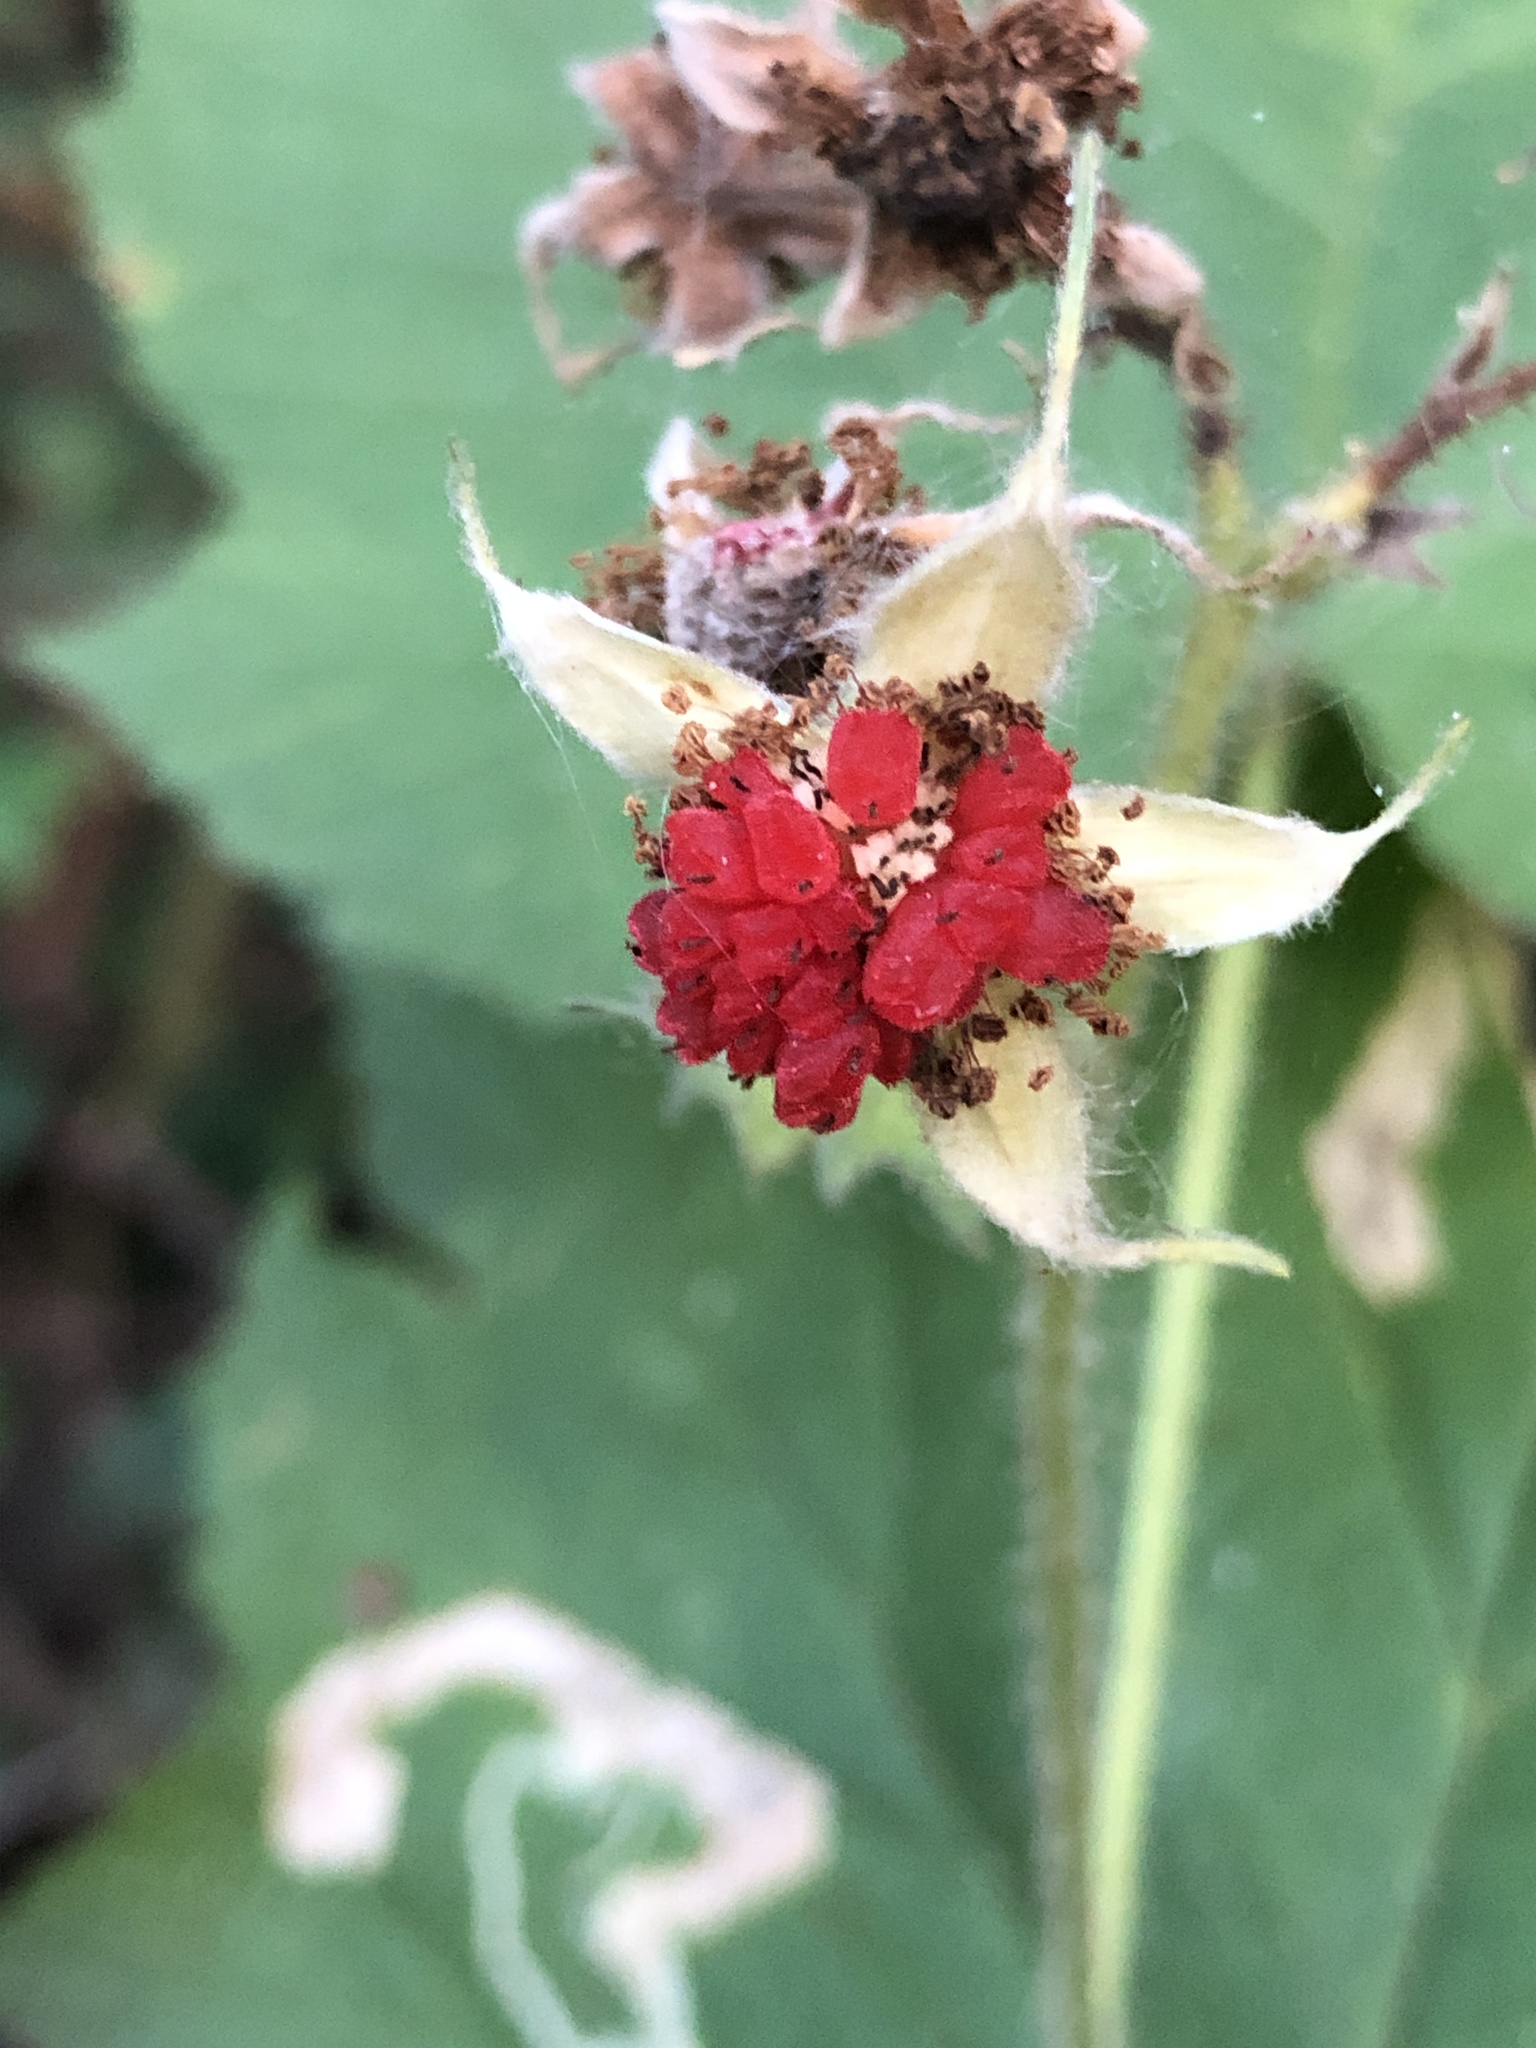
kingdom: Plantae
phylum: Tracheophyta
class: Magnoliopsida
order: Rosales
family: Rosaceae
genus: Rubus
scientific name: Rubus parviflorus
